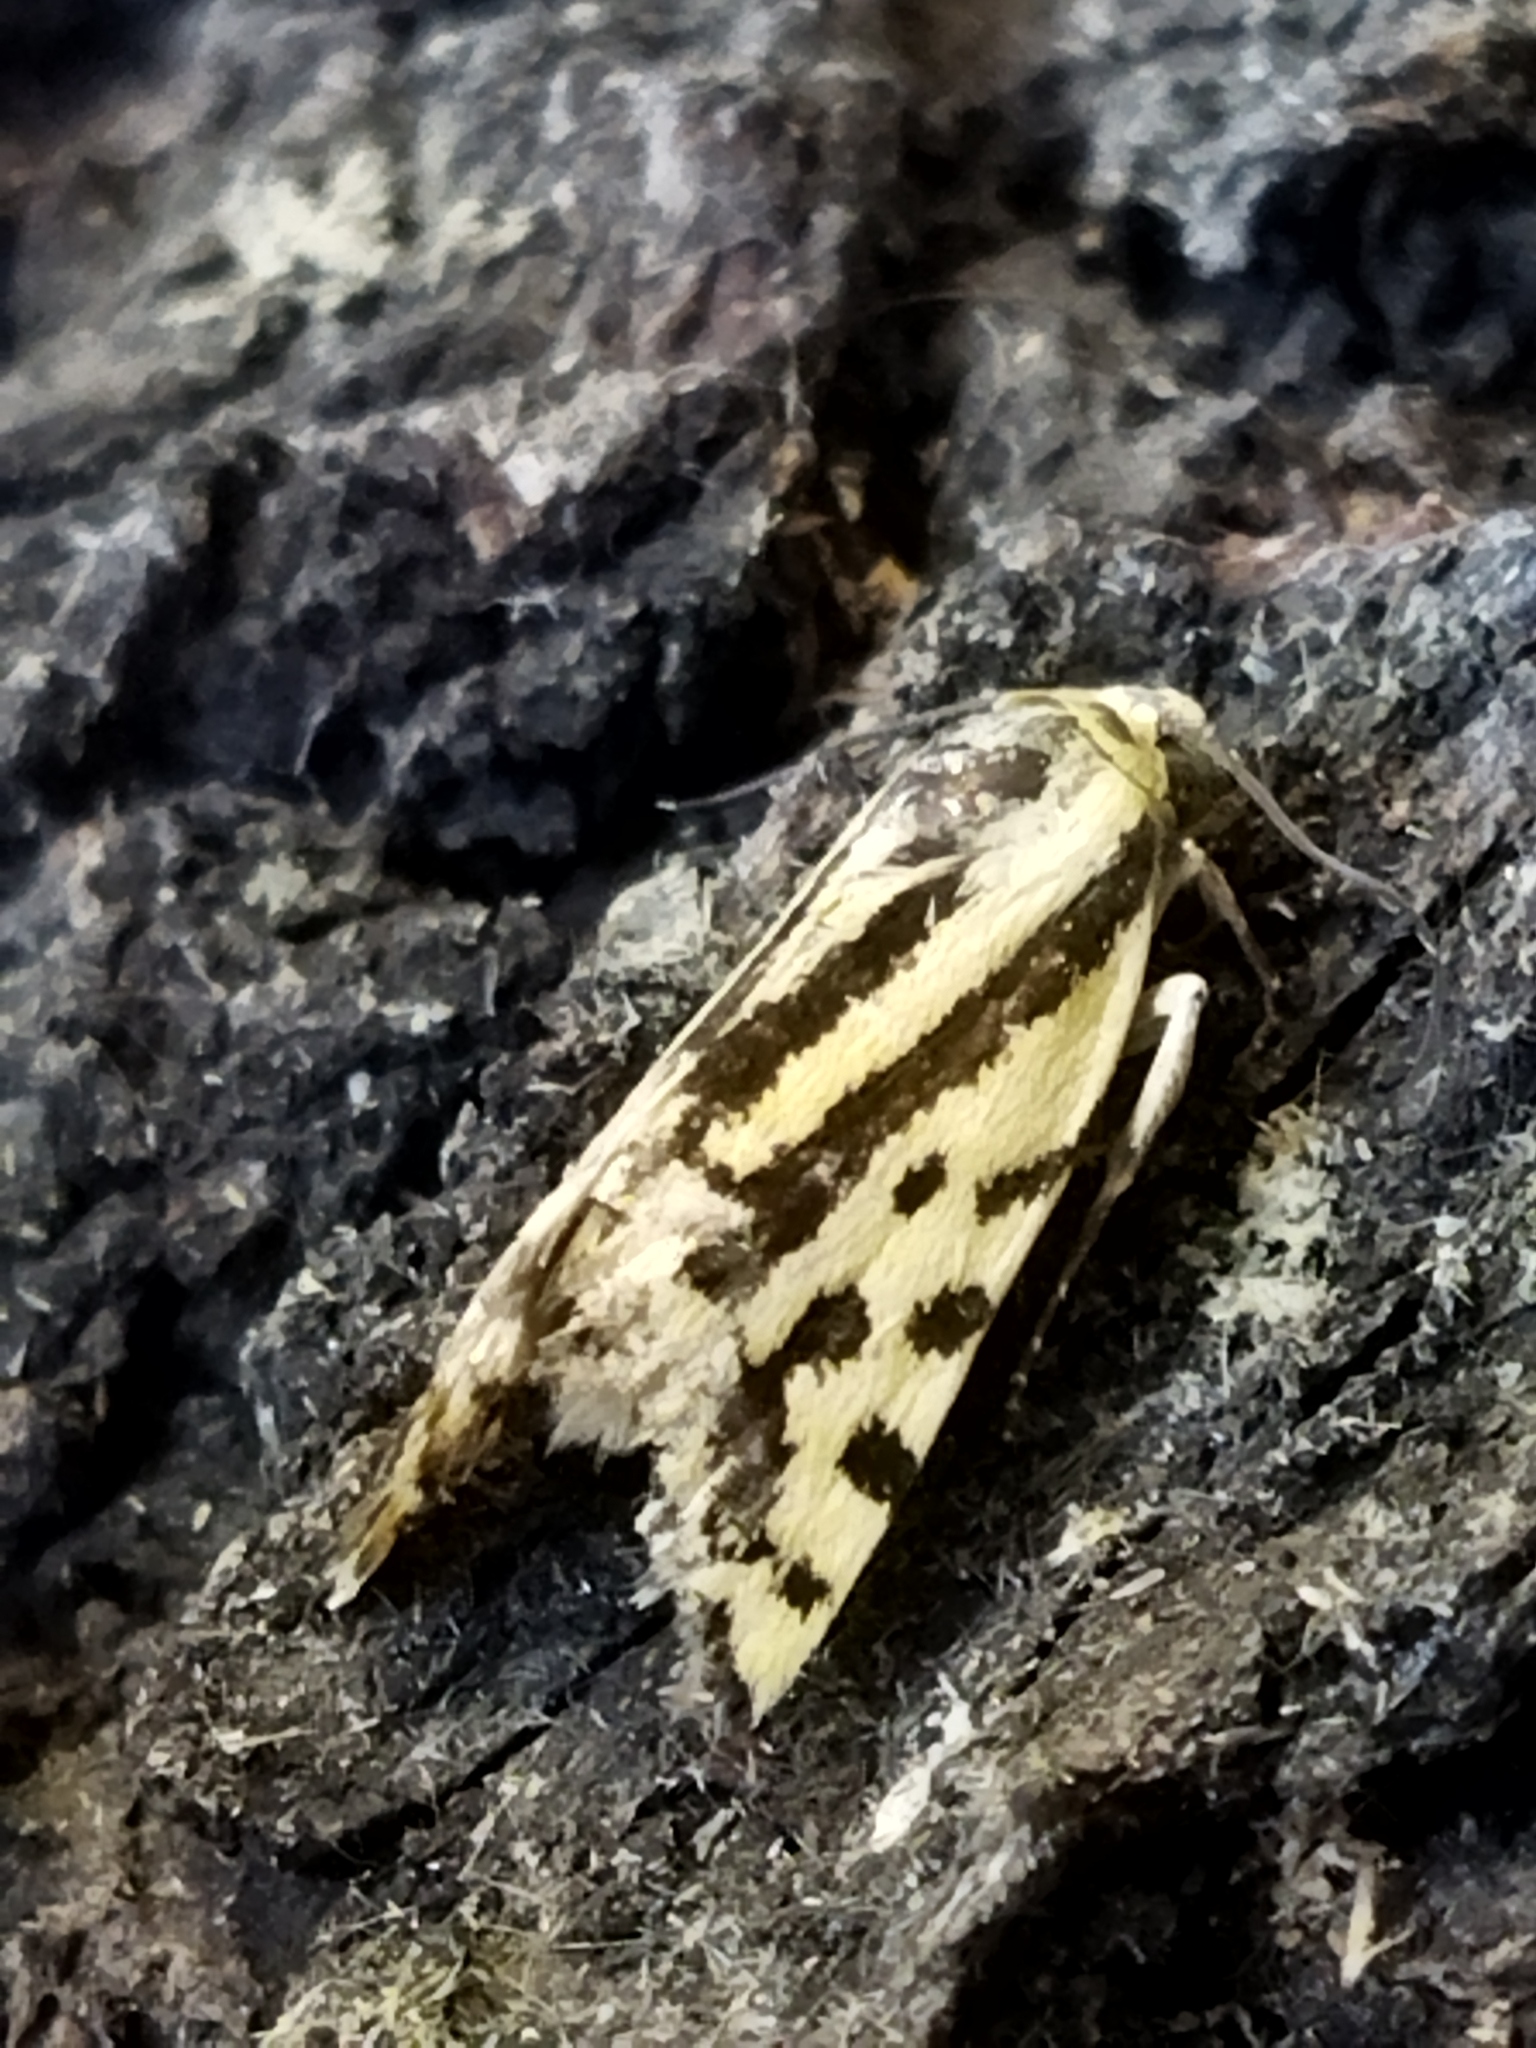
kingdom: Animalia
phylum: Arthropoda
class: Insecta
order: Lepidoptera
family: Noctuidae
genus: Acontia
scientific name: Acontia trabealis
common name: Spotted sulphur
